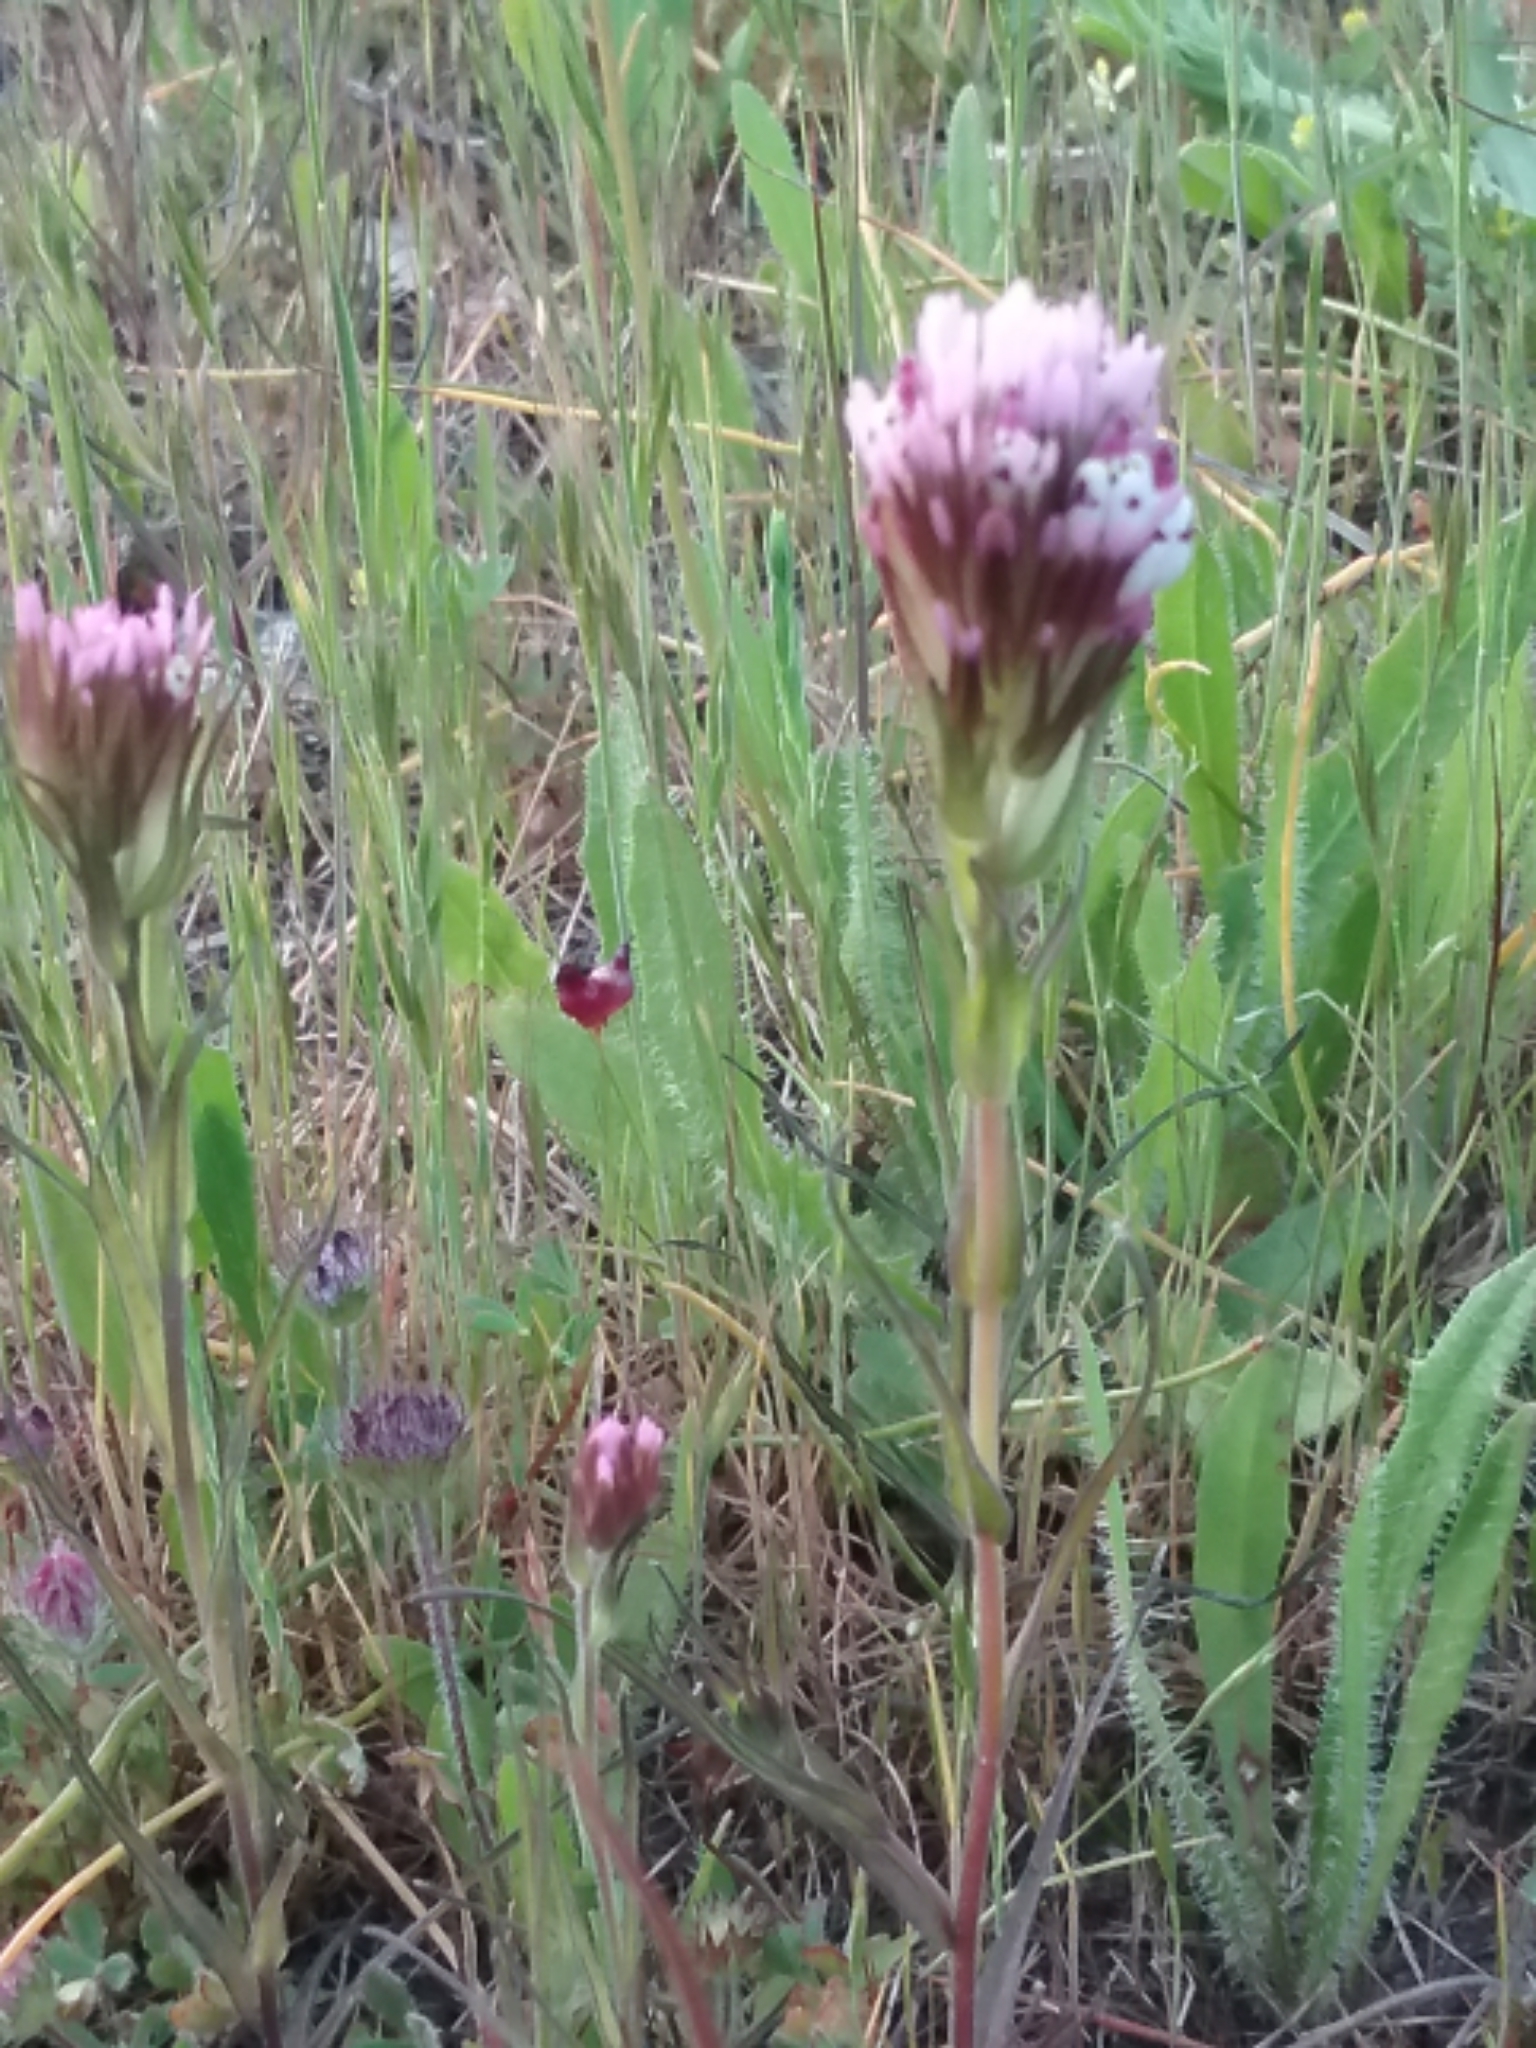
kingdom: Plantae
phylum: Tracheophyta
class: Magnoliopsida
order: Lamiales
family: Orobanchaceae
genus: Castilleja
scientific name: Castilleja densiflora
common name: Dense-flower indian paintbrush
